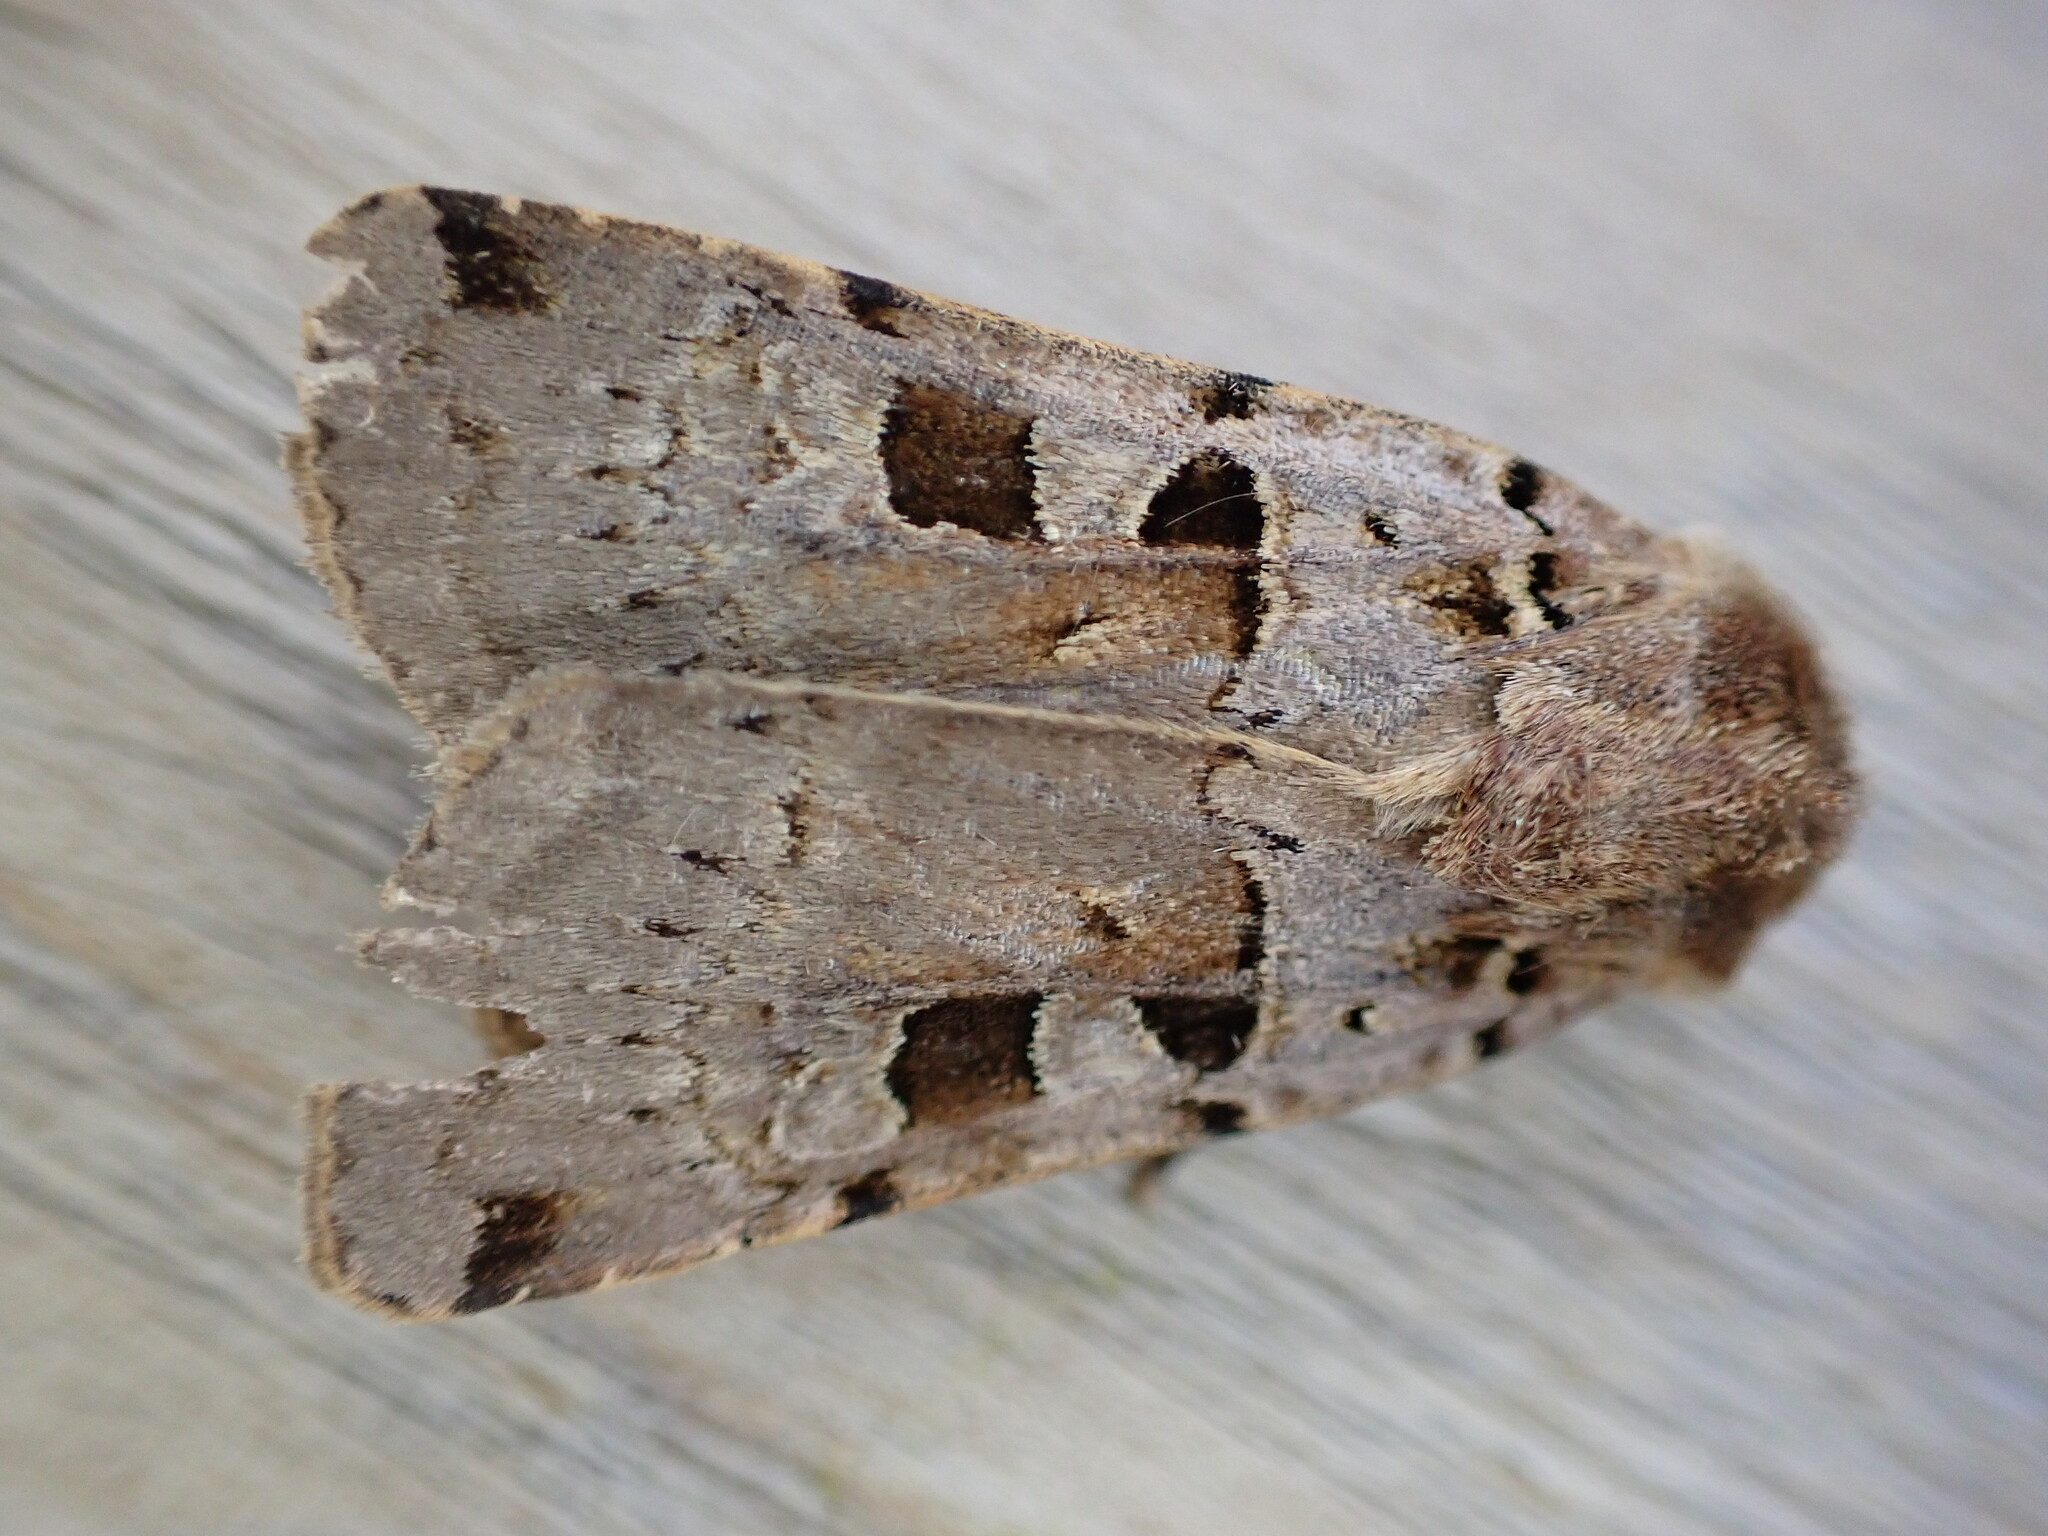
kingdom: Animalia
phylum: Arthropoda
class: Insecta
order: Lepidoptera
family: Noctuidae
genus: Xestia
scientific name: Xestia triangulum
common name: Double square-spot
